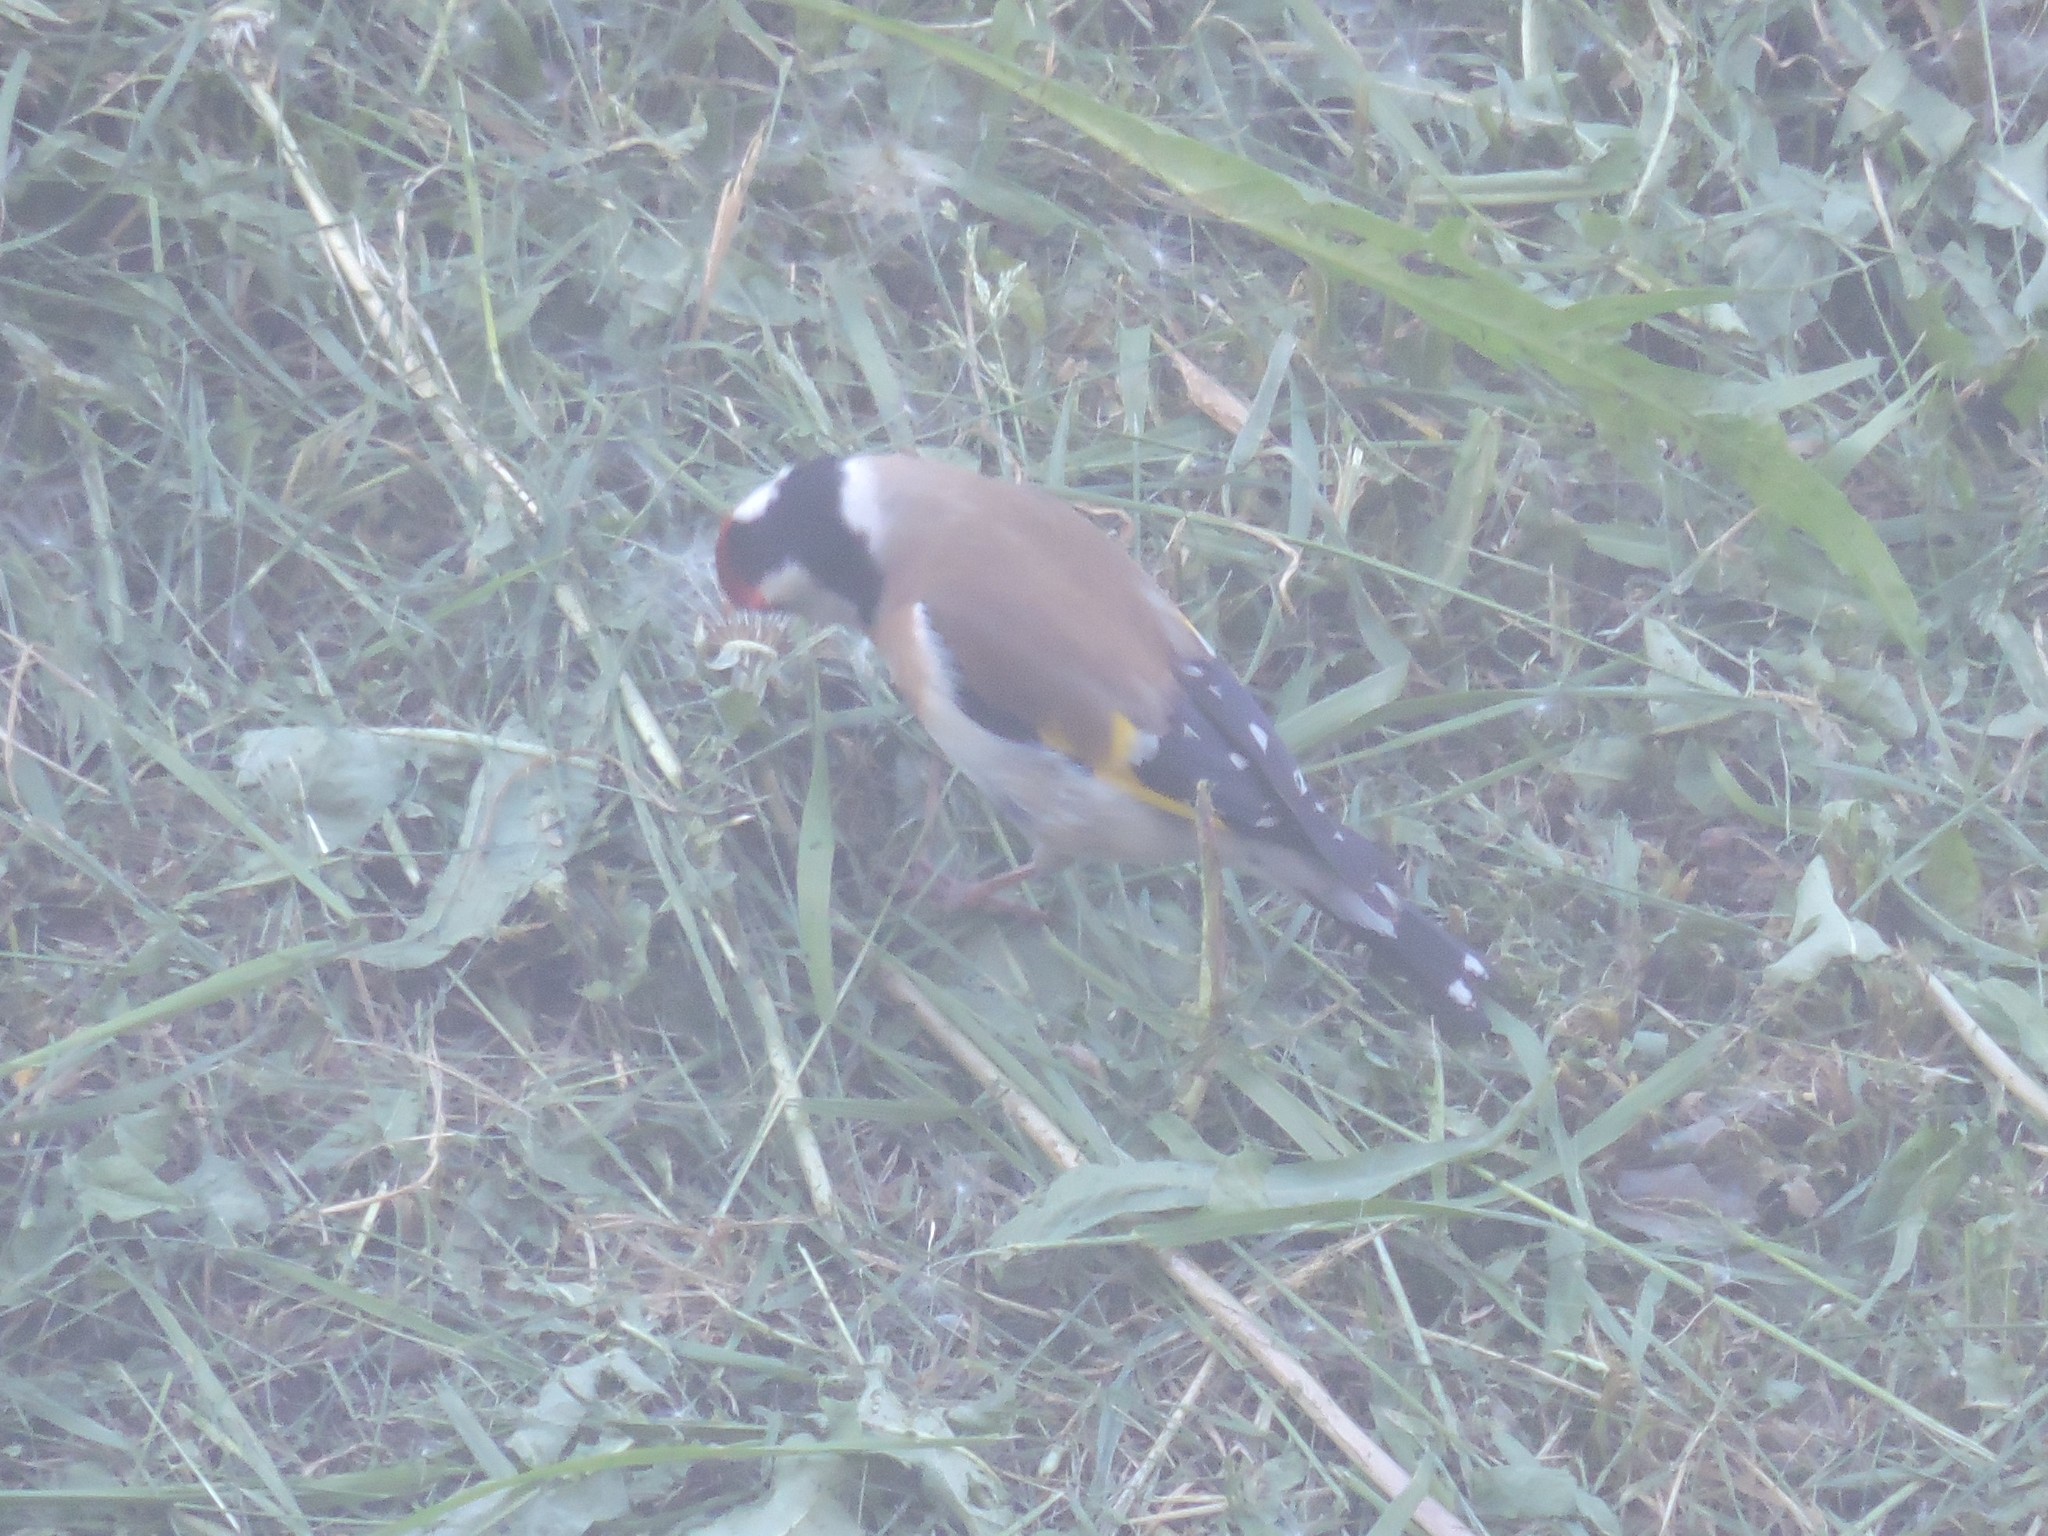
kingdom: Animalia
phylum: Chordata
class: Aves
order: Passeriformes
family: Fringillidae
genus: Carduelis
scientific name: Carduelis carduelis
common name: European goldfinch
